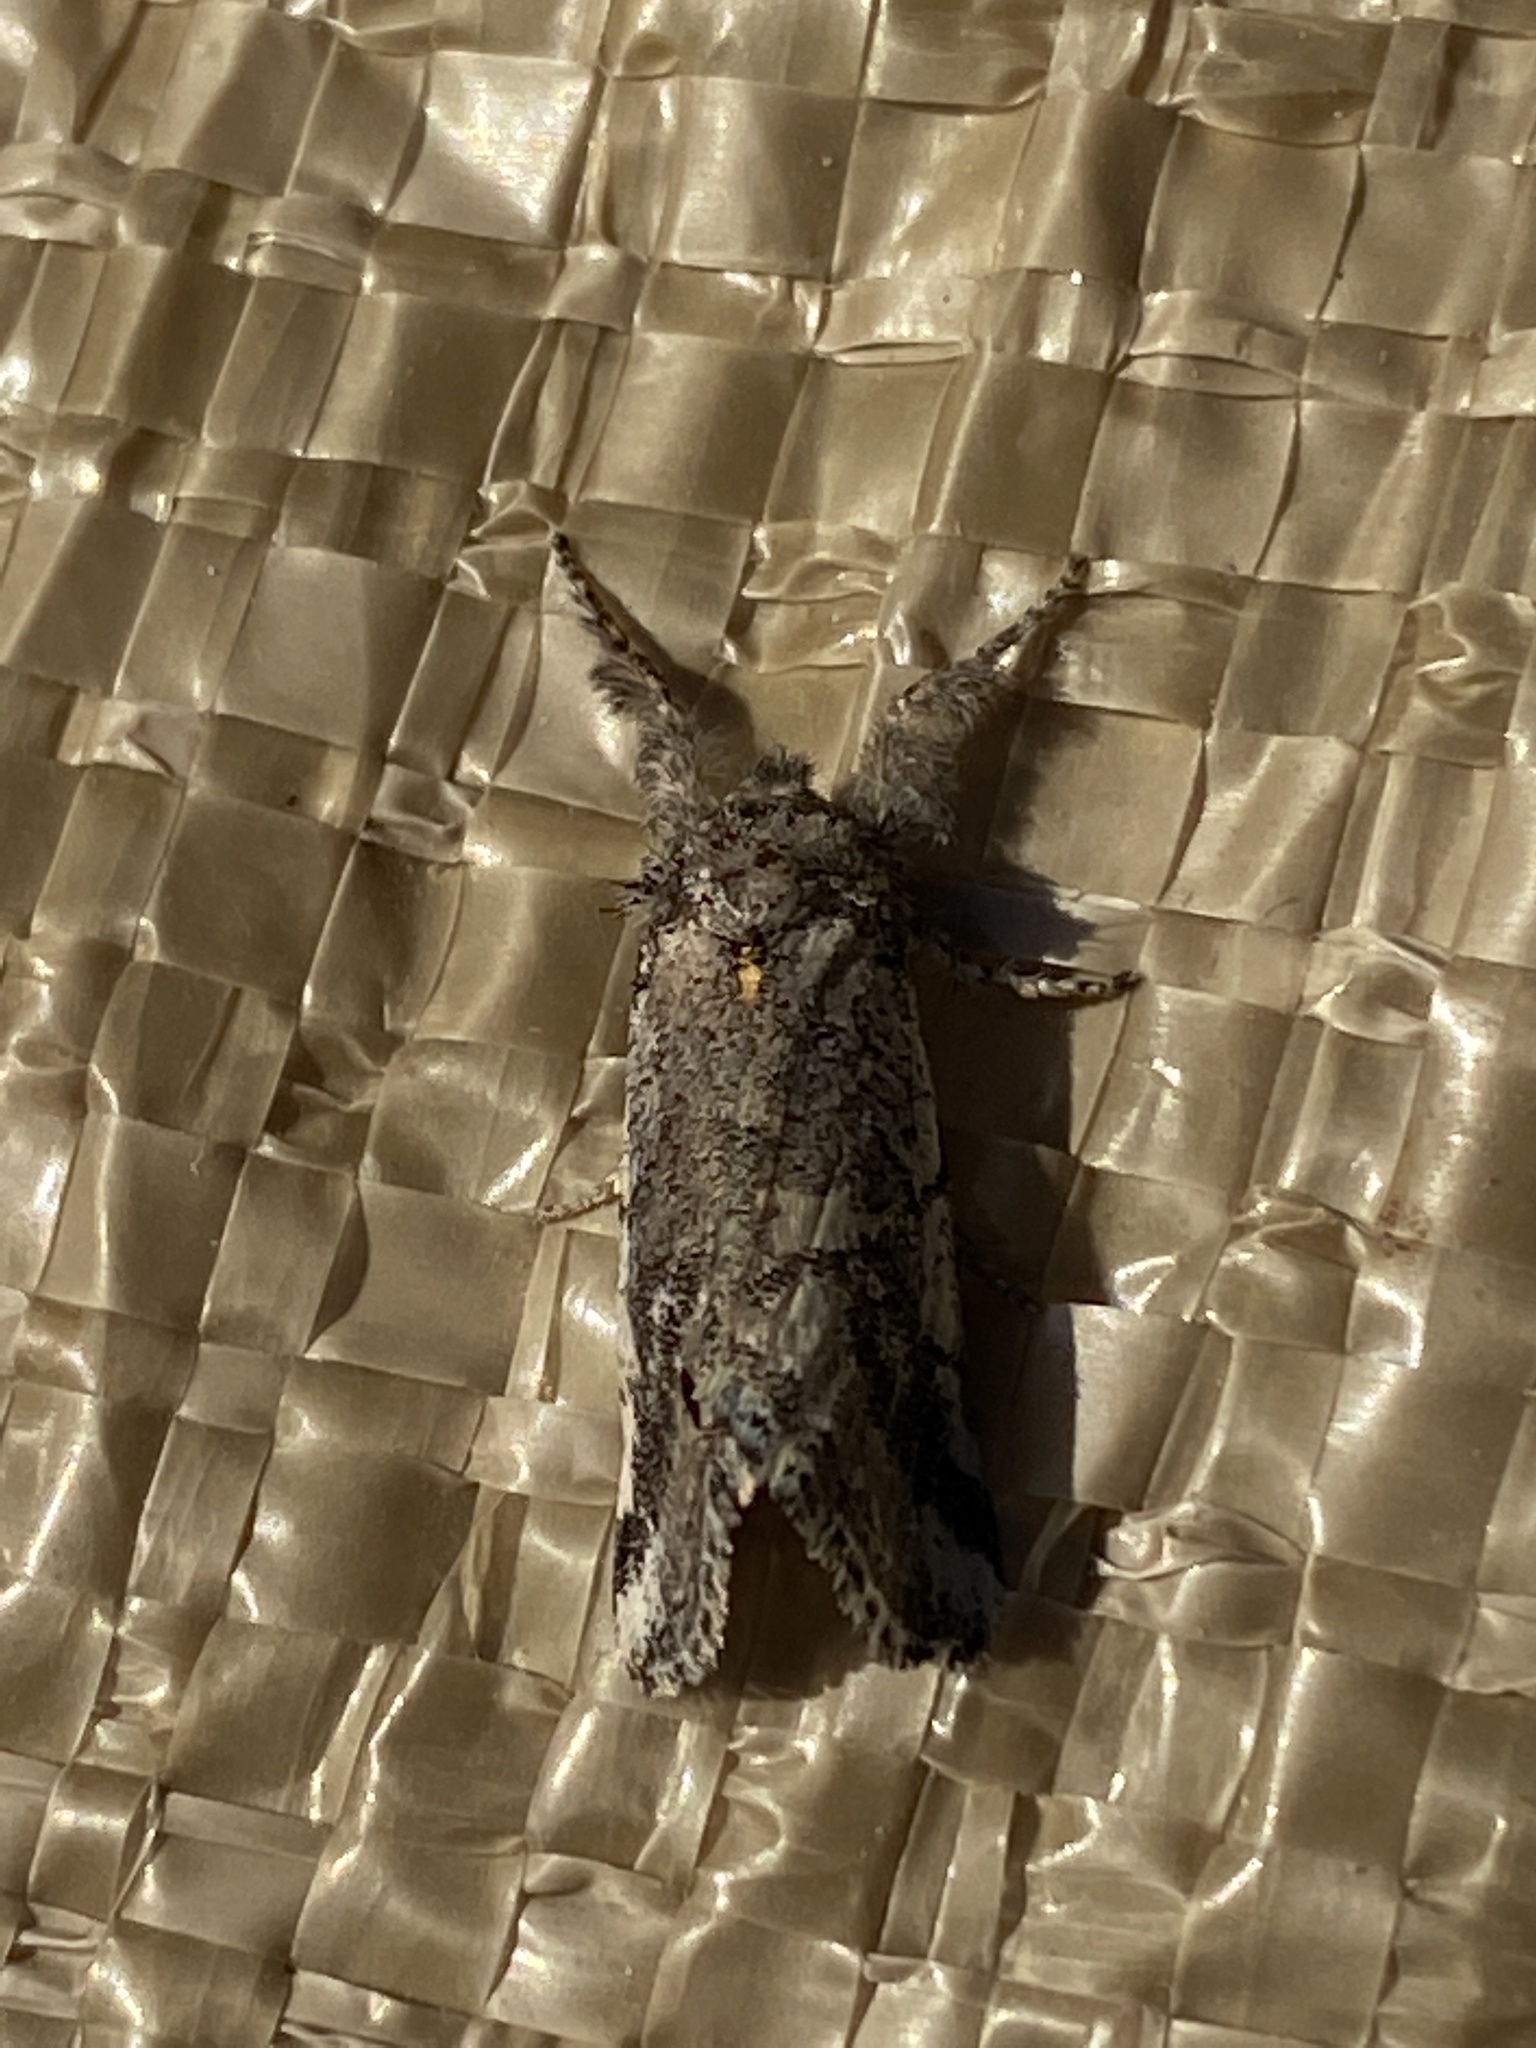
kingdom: Animalia
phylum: Arthropoda
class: Insecta
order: Lepidoptera
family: Erebidae
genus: Tearosoma
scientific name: Tearosoma aspersum
